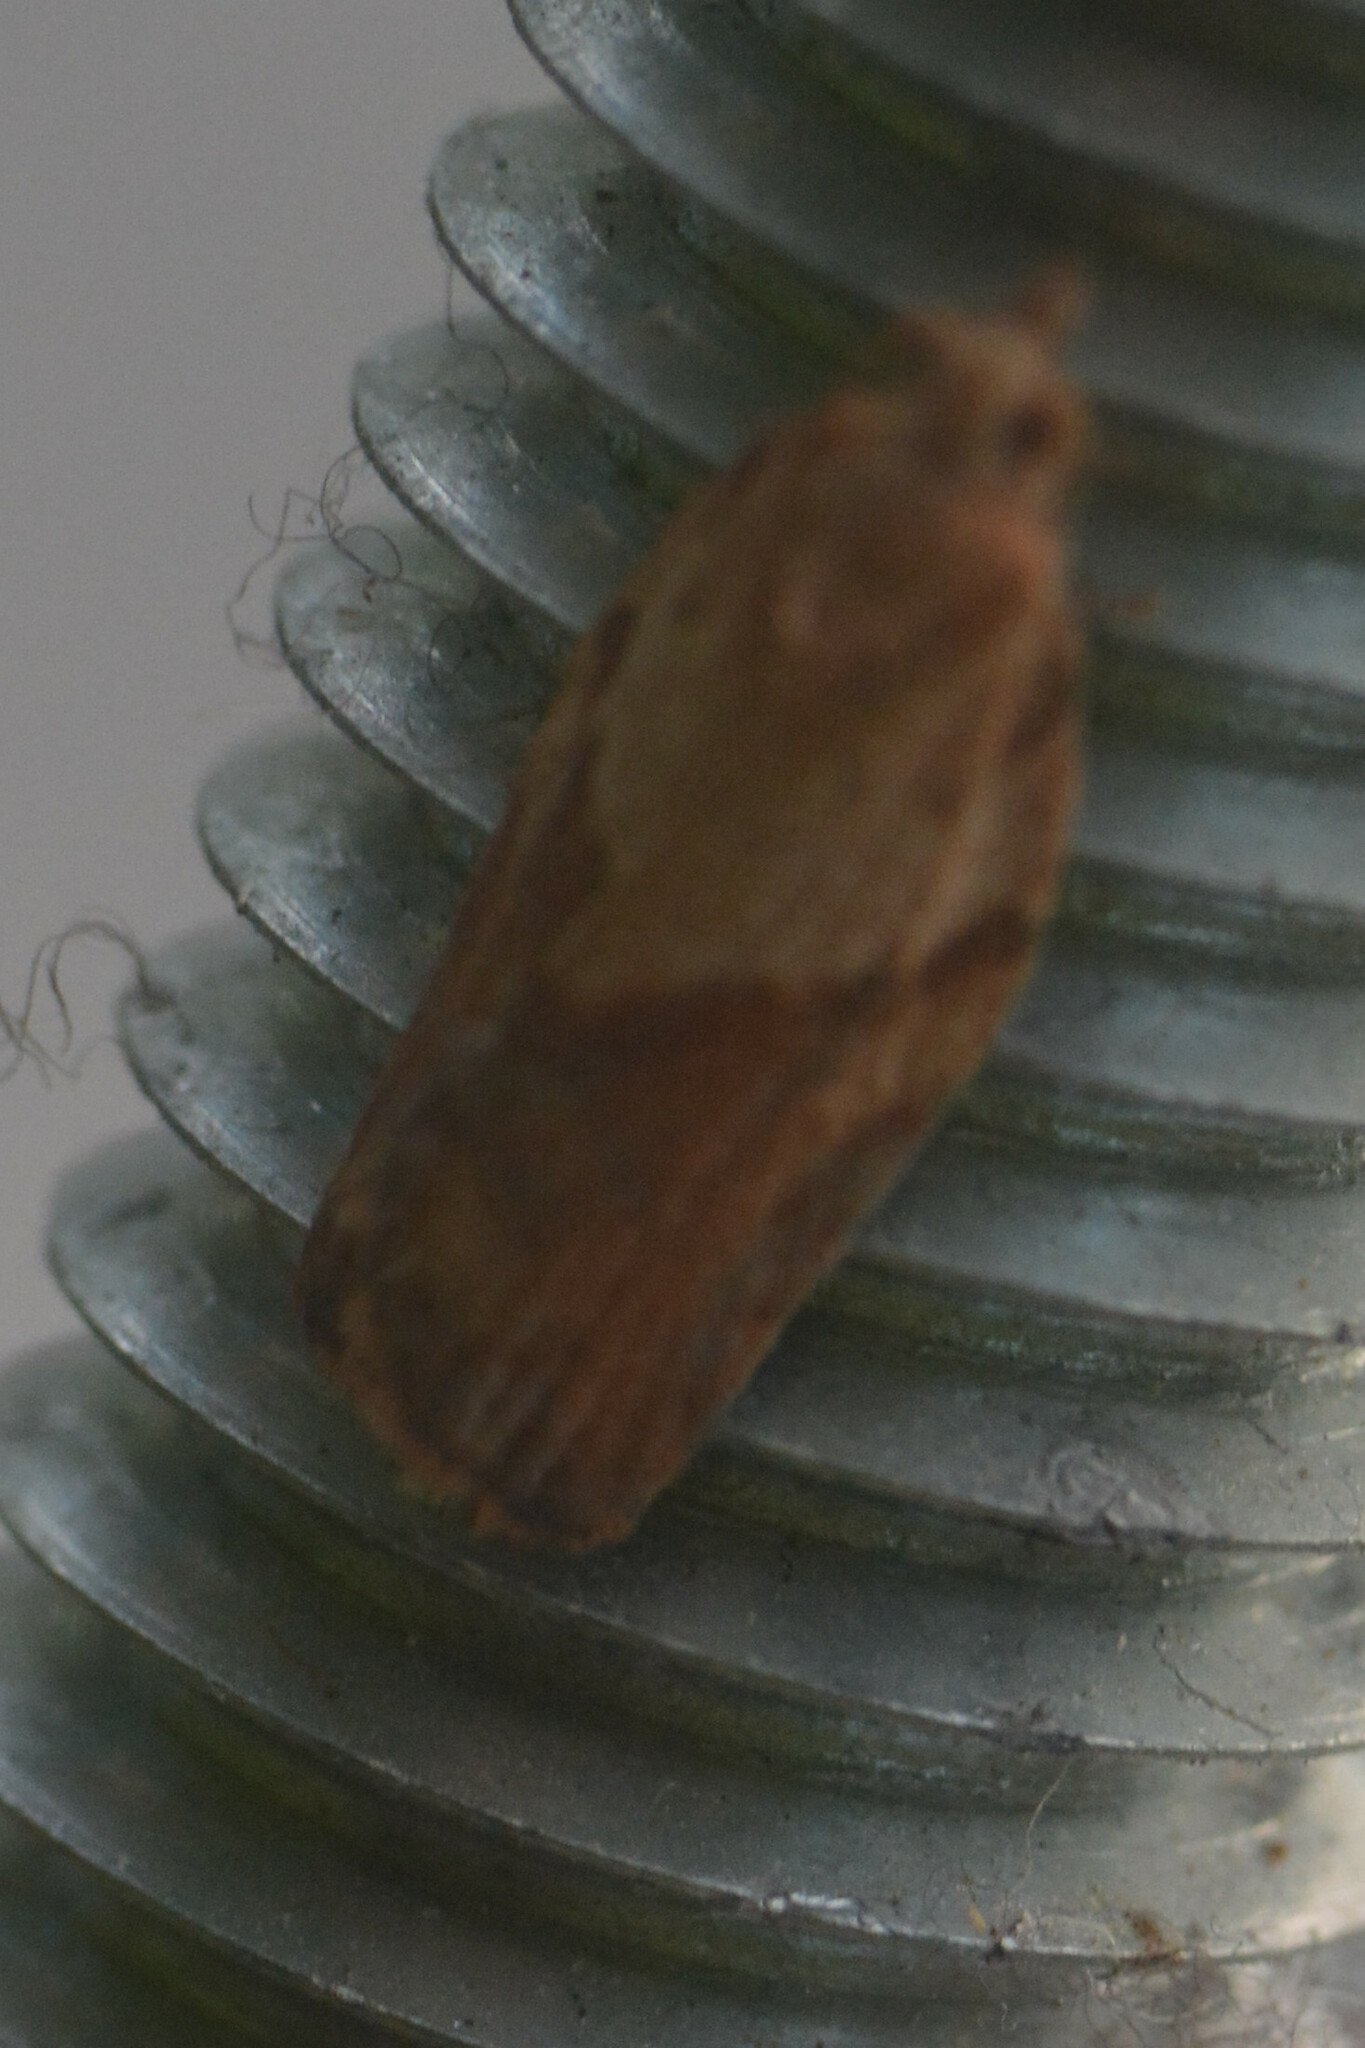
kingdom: Animalia
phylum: Arthropoda
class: Insecta
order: Lepidoptera
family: Tortricidae
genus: Epiphyas
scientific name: Epiphyas postvittana
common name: Light brown apple moth
